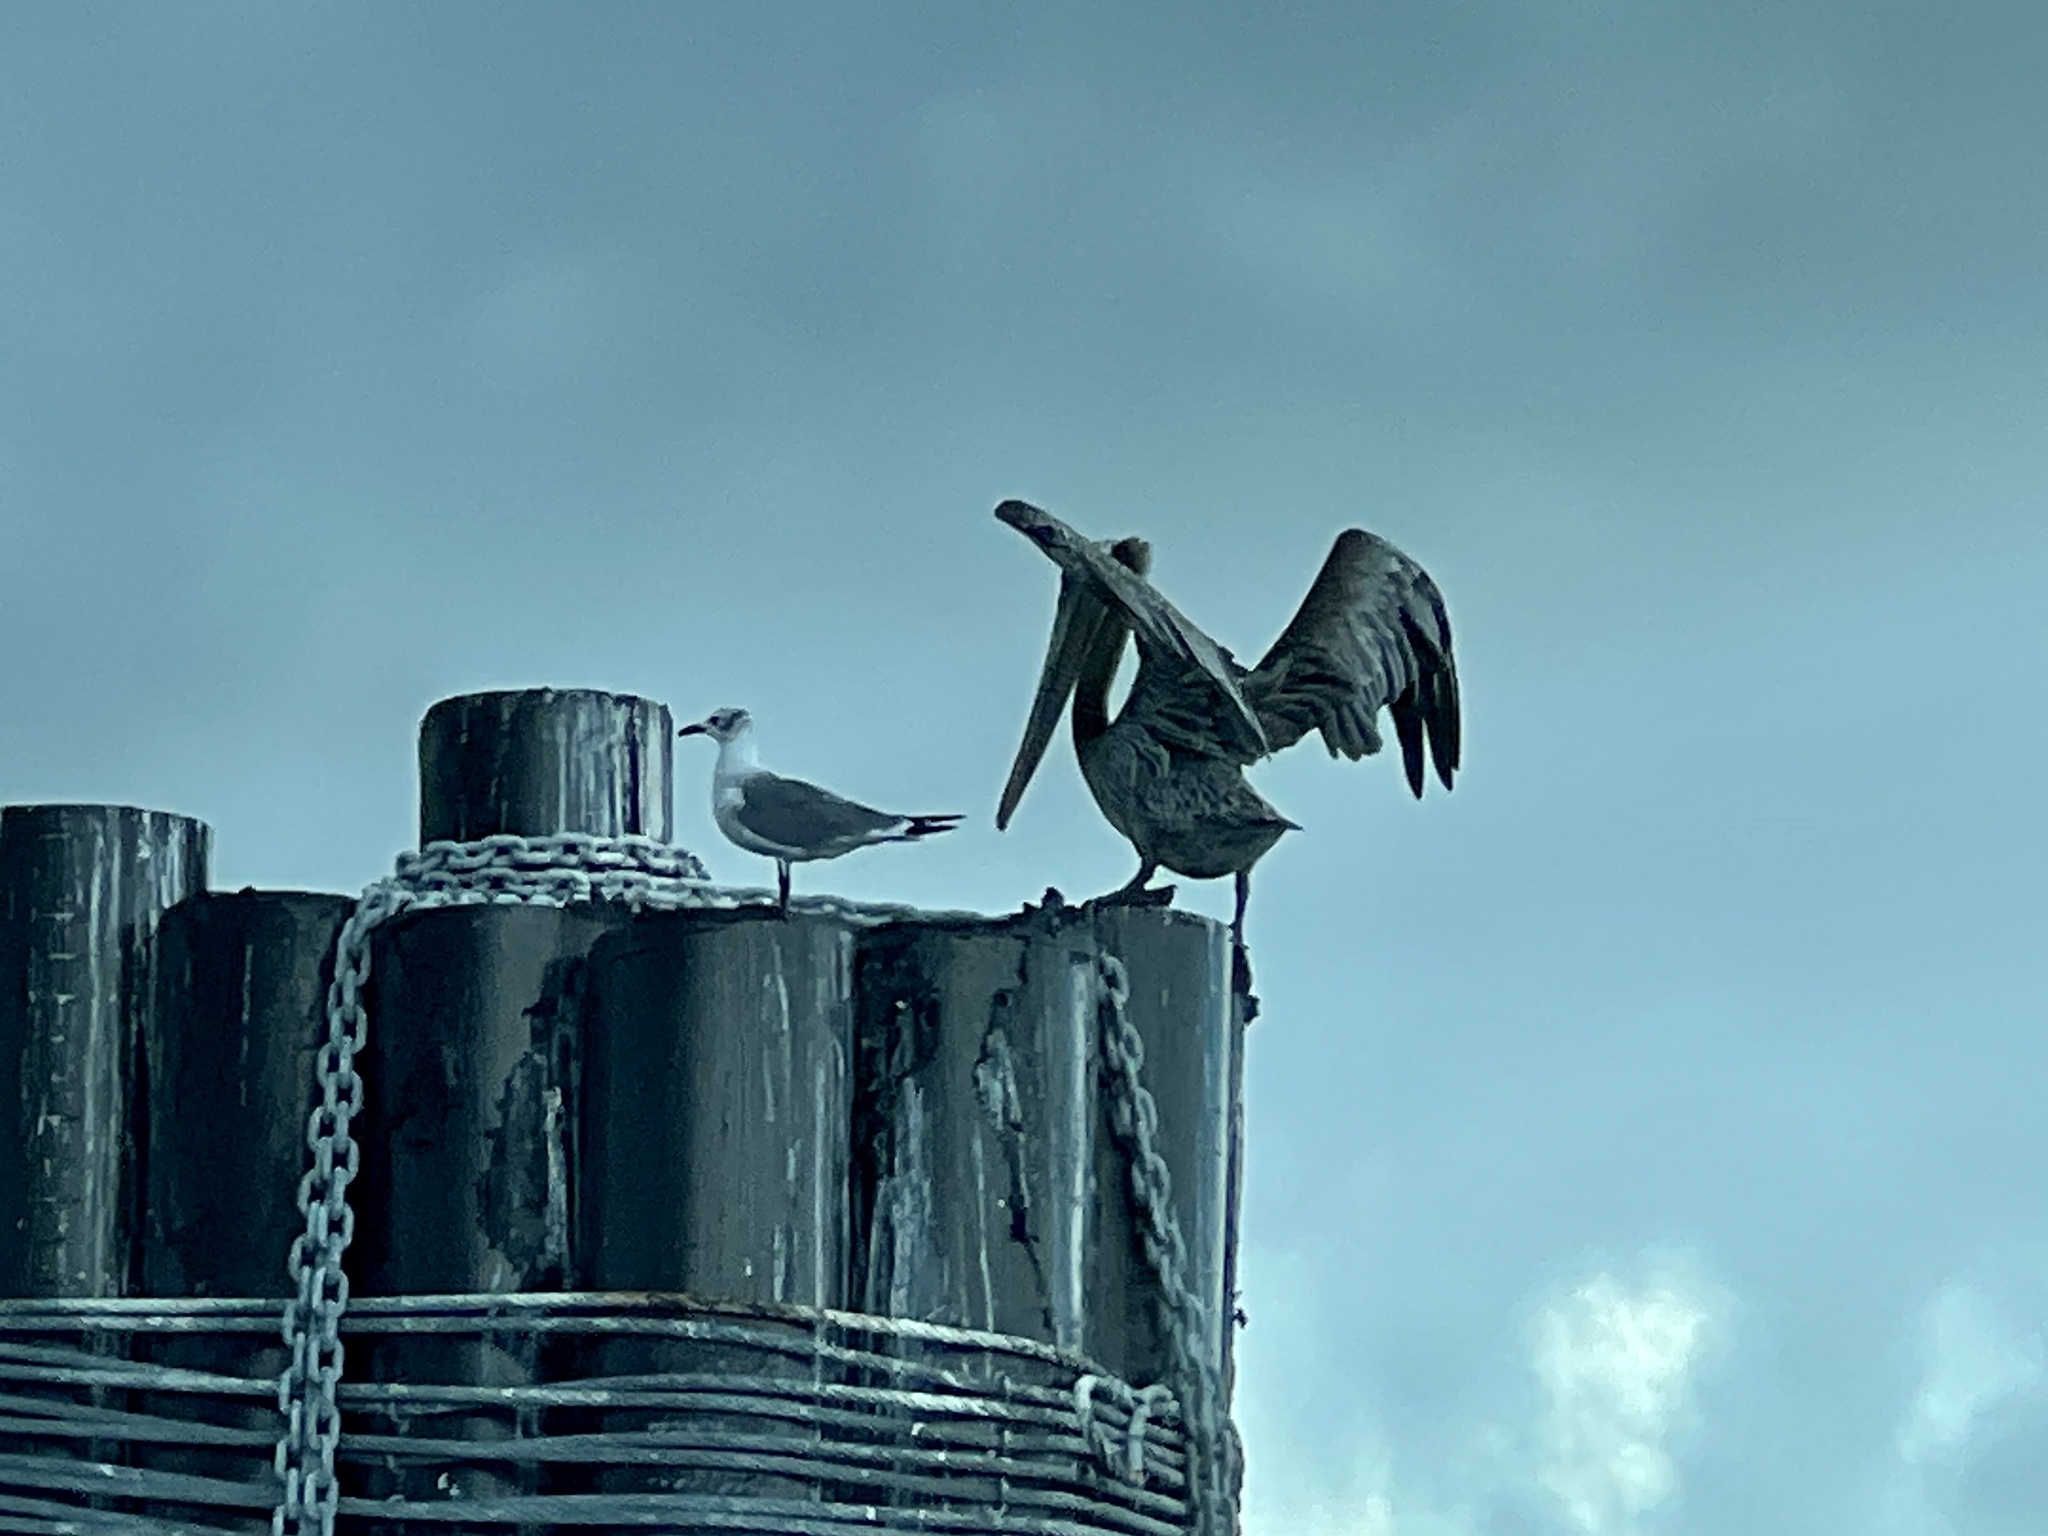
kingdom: Animalia
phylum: Chordata
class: Aves
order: Pelecaniformes
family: Pelecanidae
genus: Pelecanus
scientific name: Pelecanus occidentalis
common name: Brown pelican
